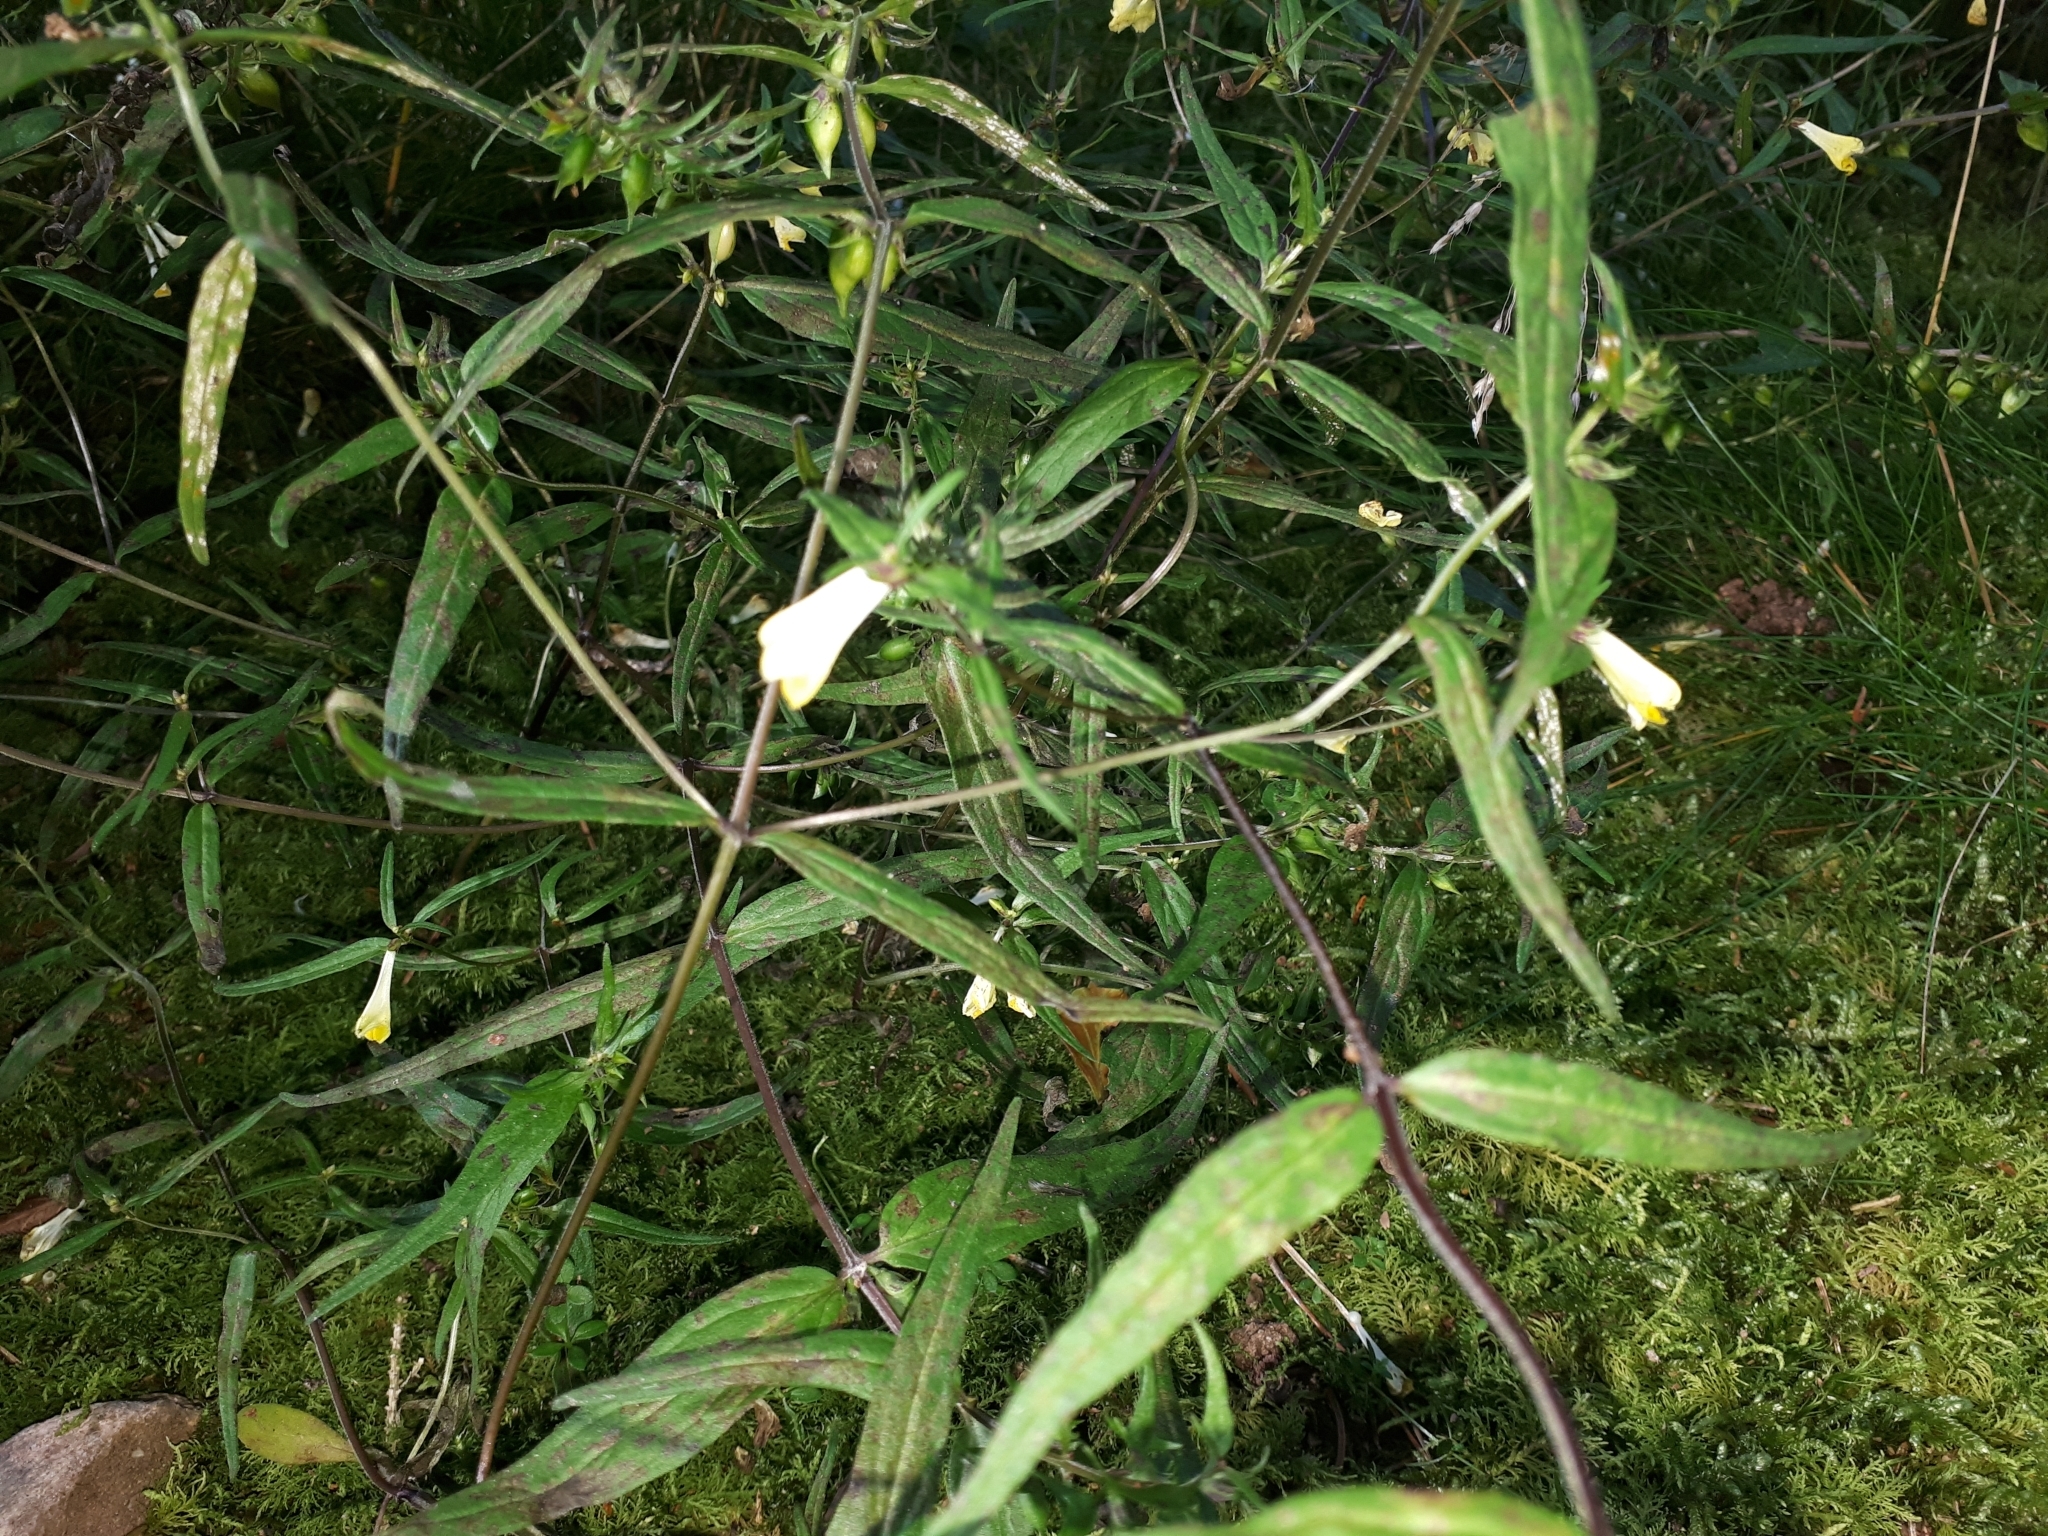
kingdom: Plantae
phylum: Tracheophyta
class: Magnoliopsida
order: Lamiales
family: Orobanchaceae
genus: Melampyrum
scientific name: Melampyrum pratense
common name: Common cow-wheat
